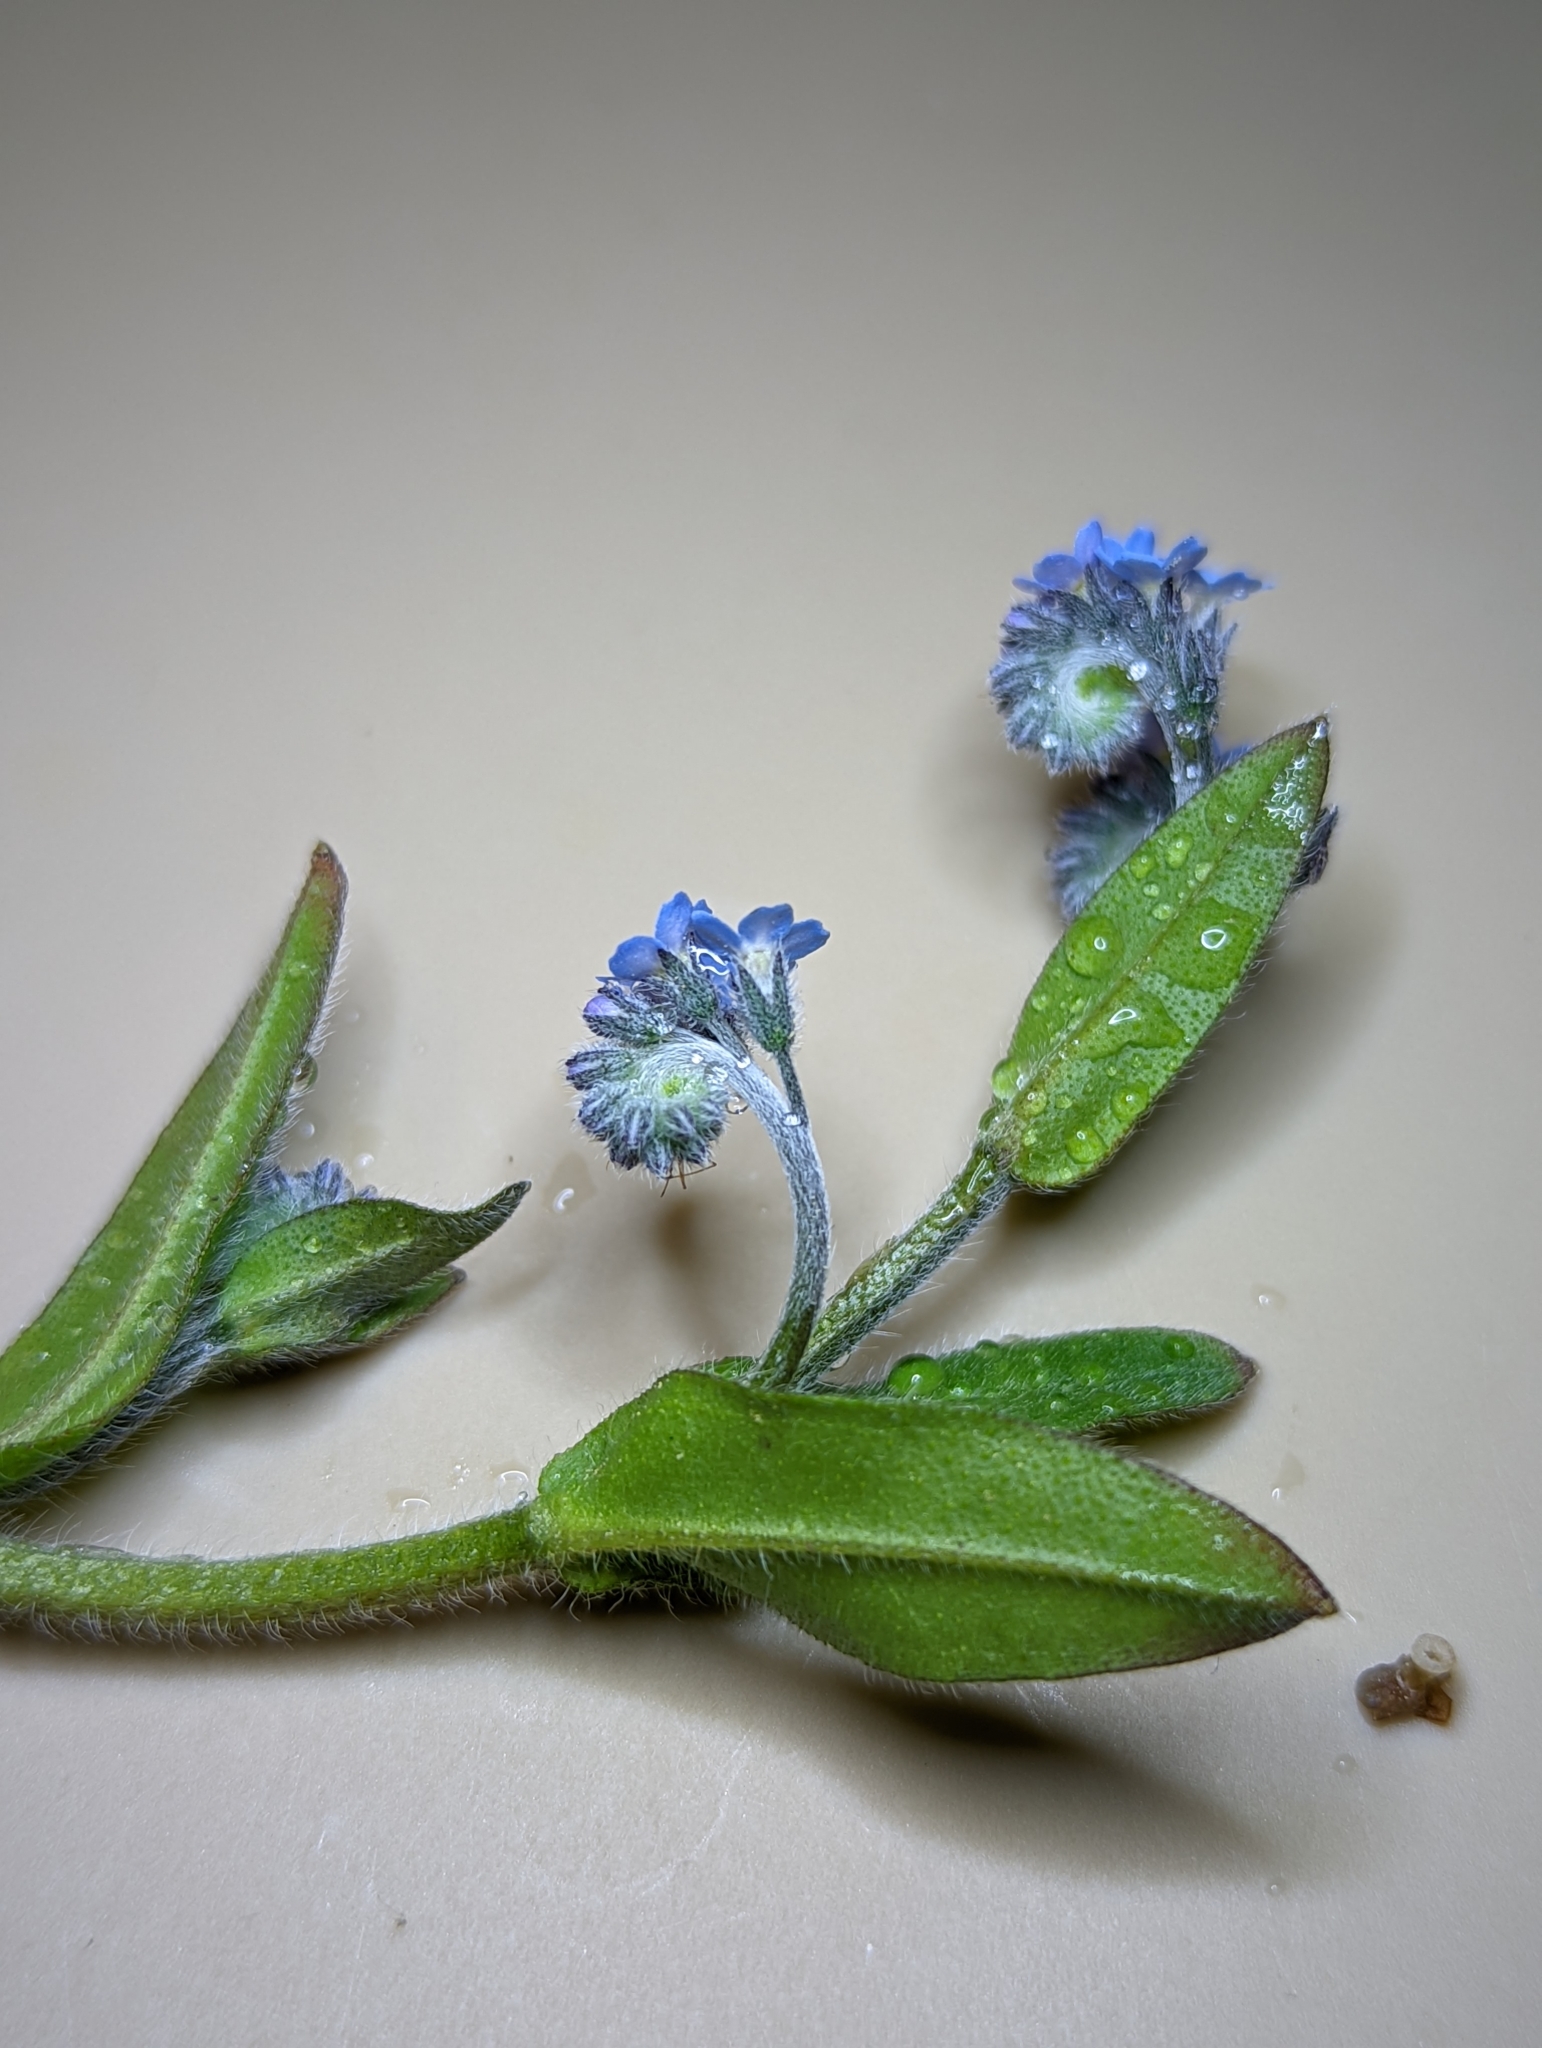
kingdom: Plantae
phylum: Tracheophyta
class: Magnoliopsida
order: Boraginales
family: Boraginaceae
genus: Myosotis
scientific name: Myosotis arvensis
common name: Field forget-me-not
